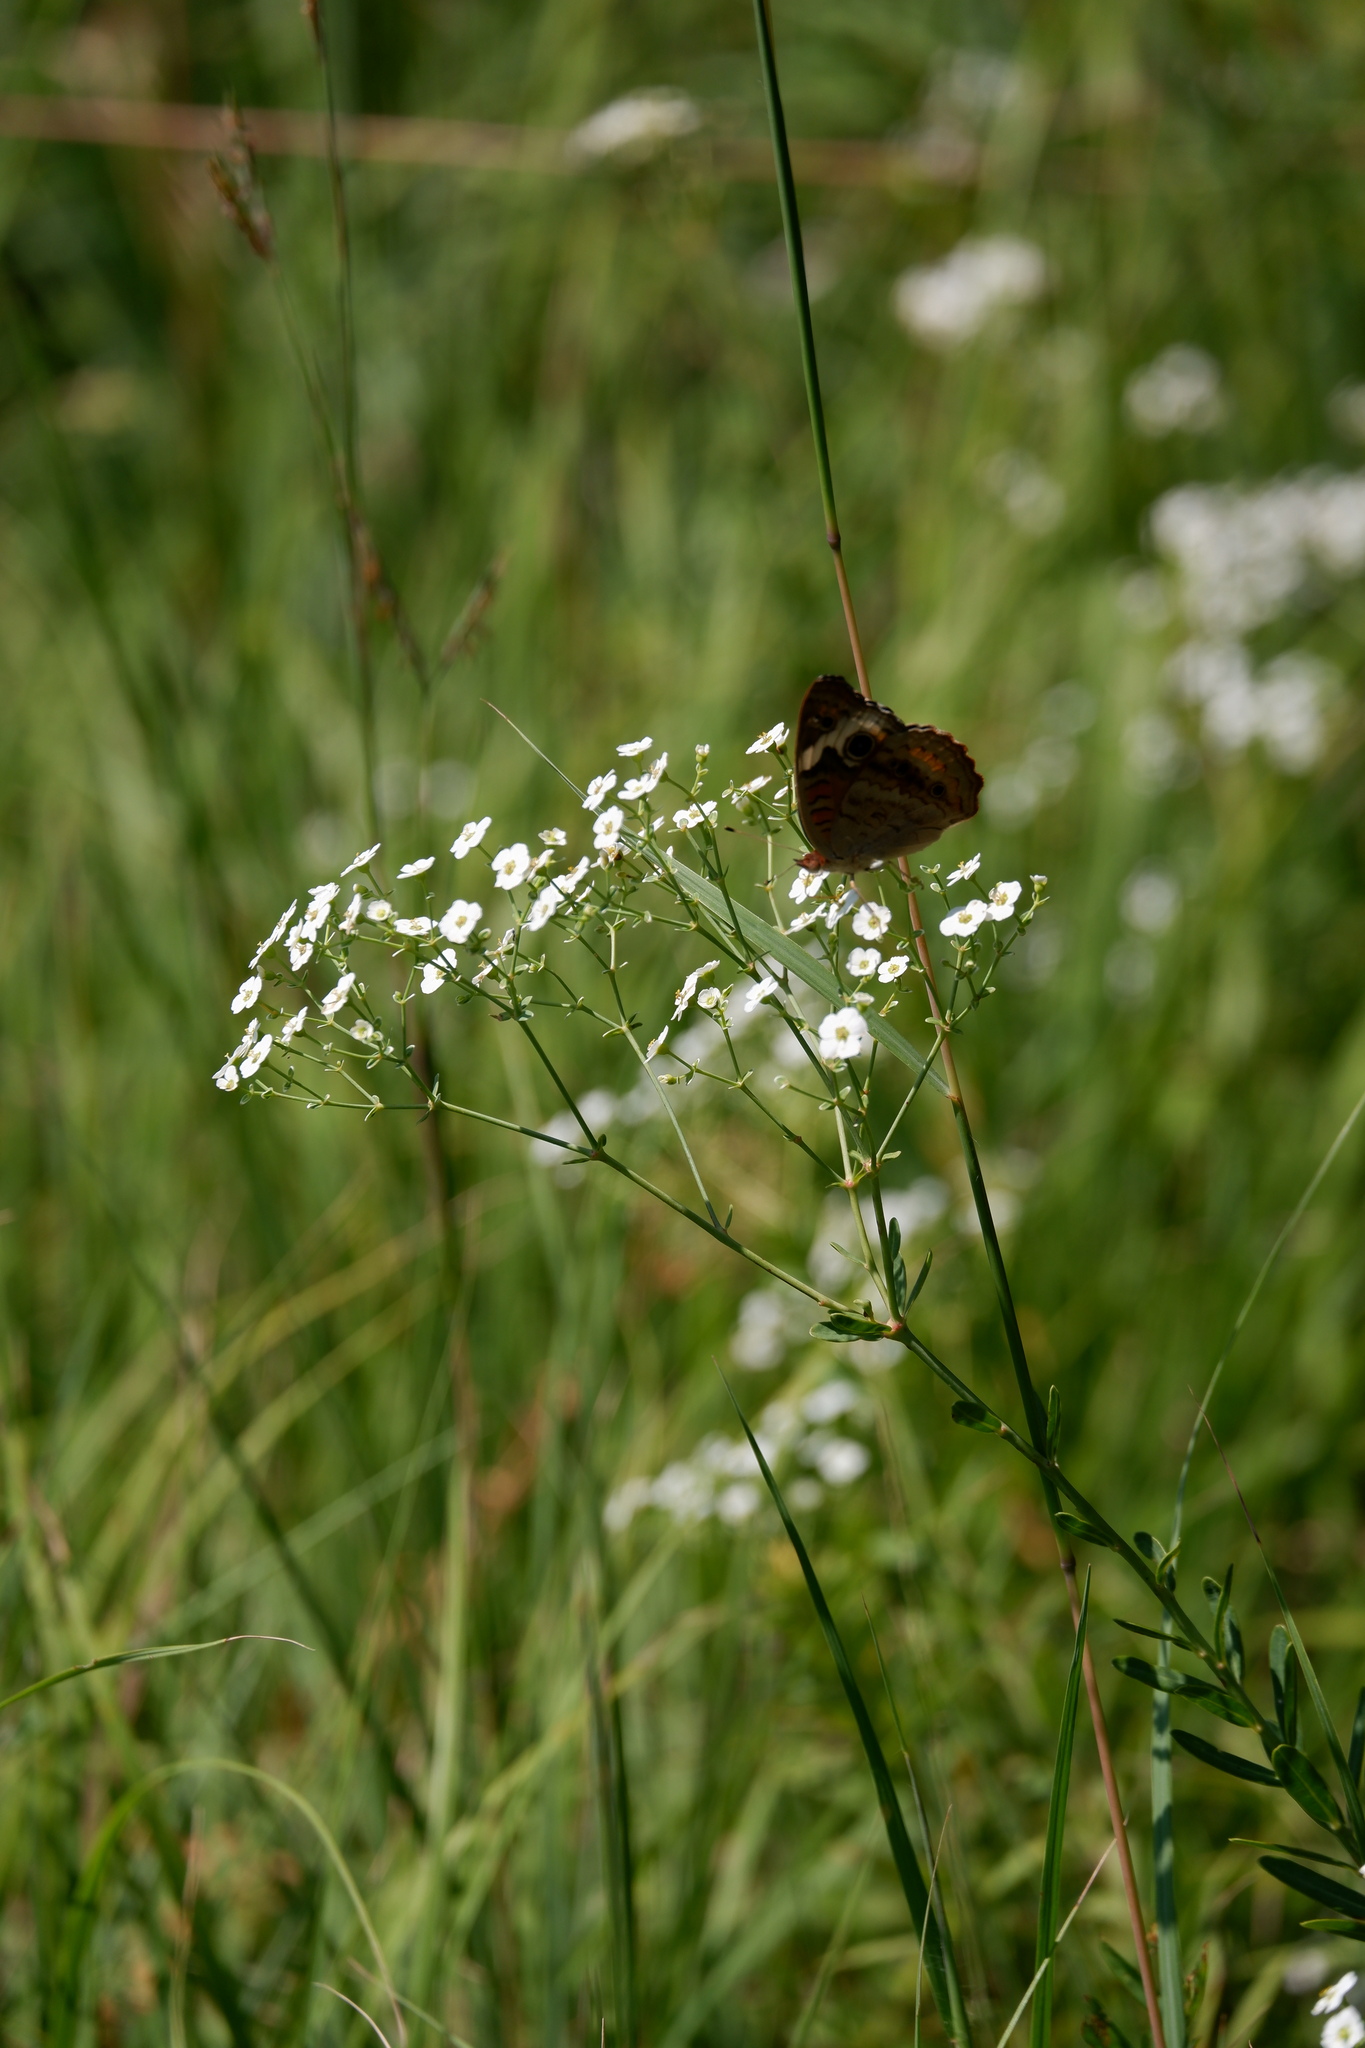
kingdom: Animalia
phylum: Arthropoda
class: Insecta
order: Lepidoptera
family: Nymphalidae
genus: Junonia
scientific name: Junonia coenia
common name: Common buckeye
